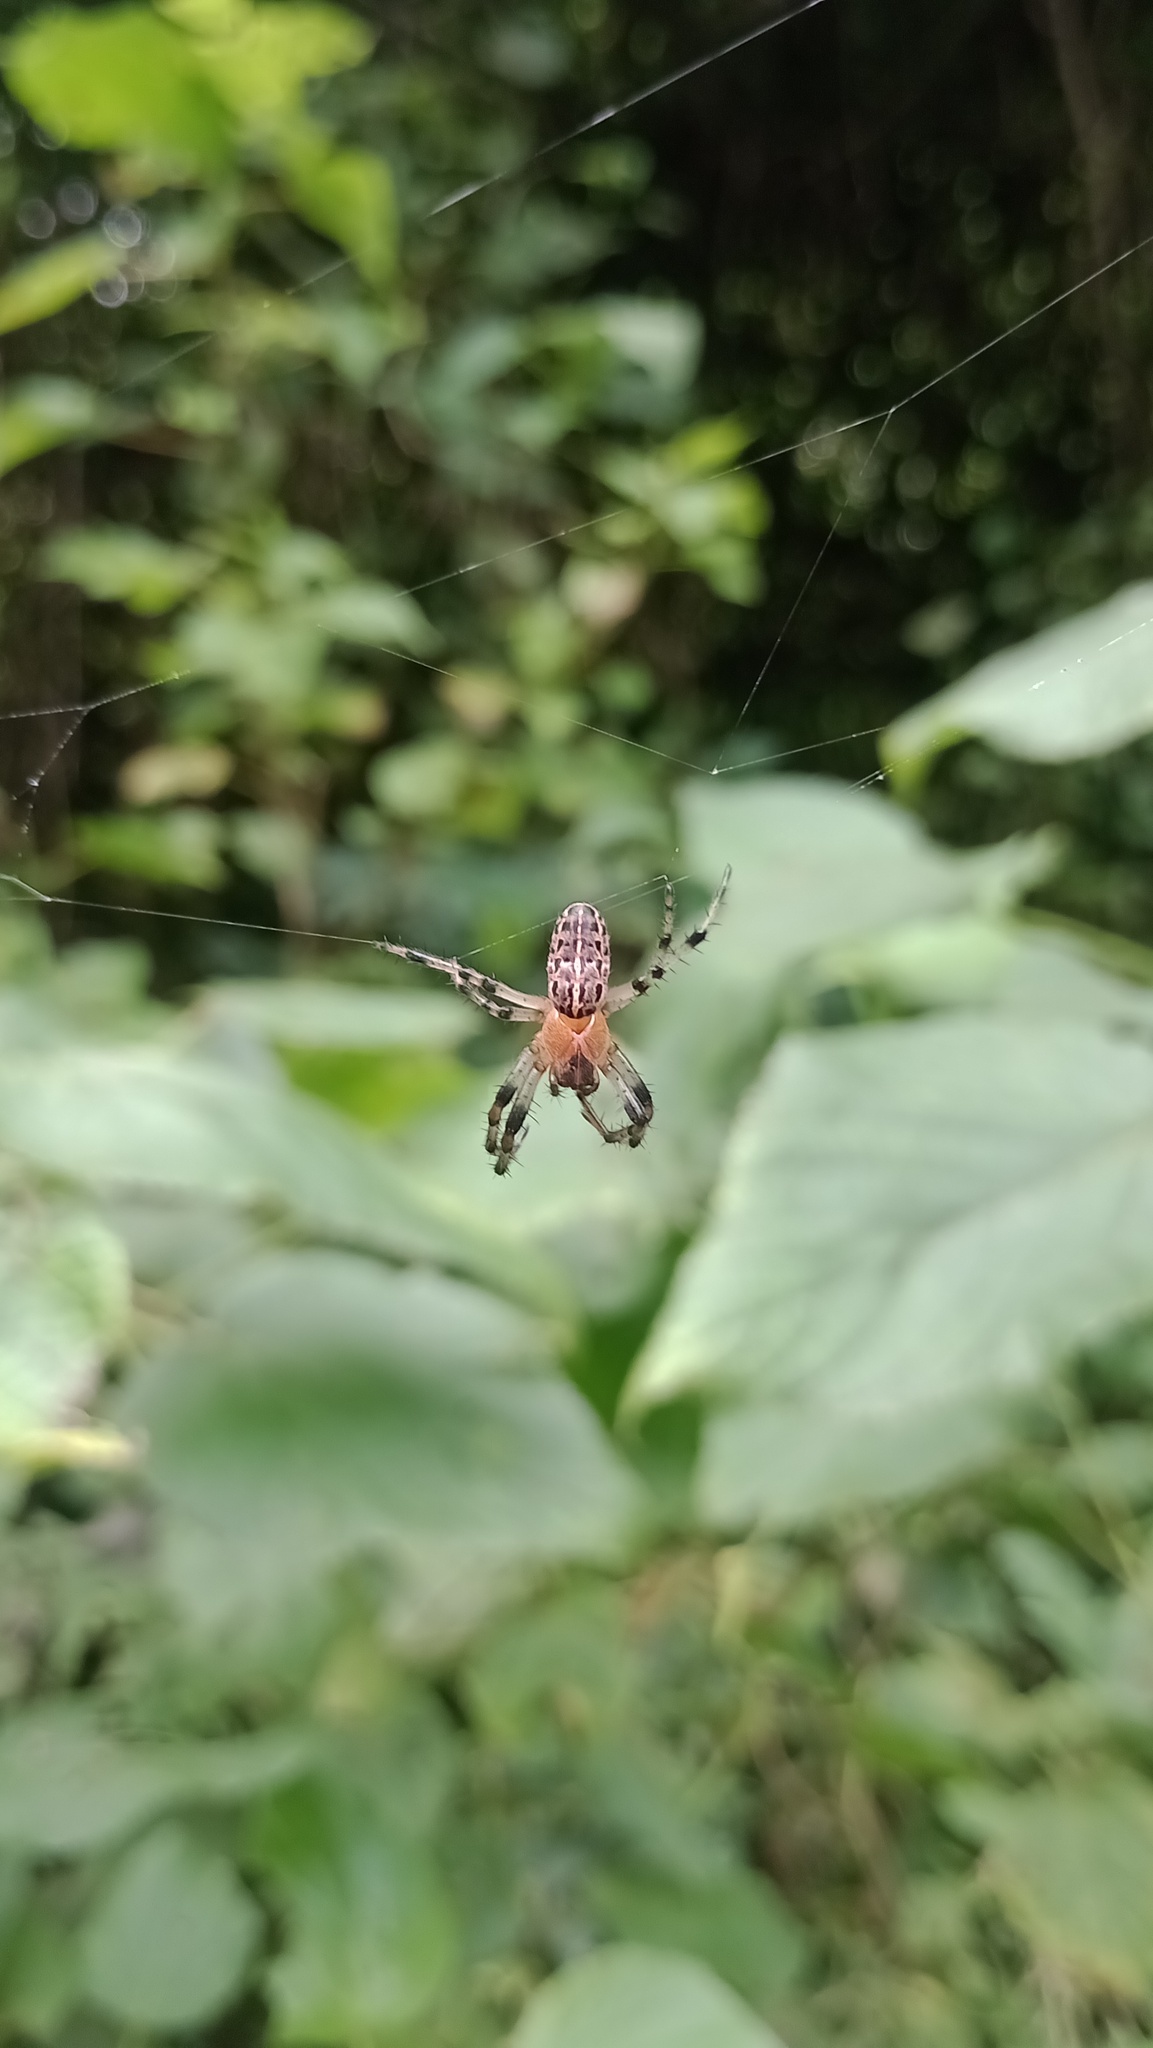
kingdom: Animalia
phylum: Arthropoda
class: Arachnida
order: Araneae
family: Araneidae
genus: Alpaida
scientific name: Alpaida veniliae
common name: Orb weavers
